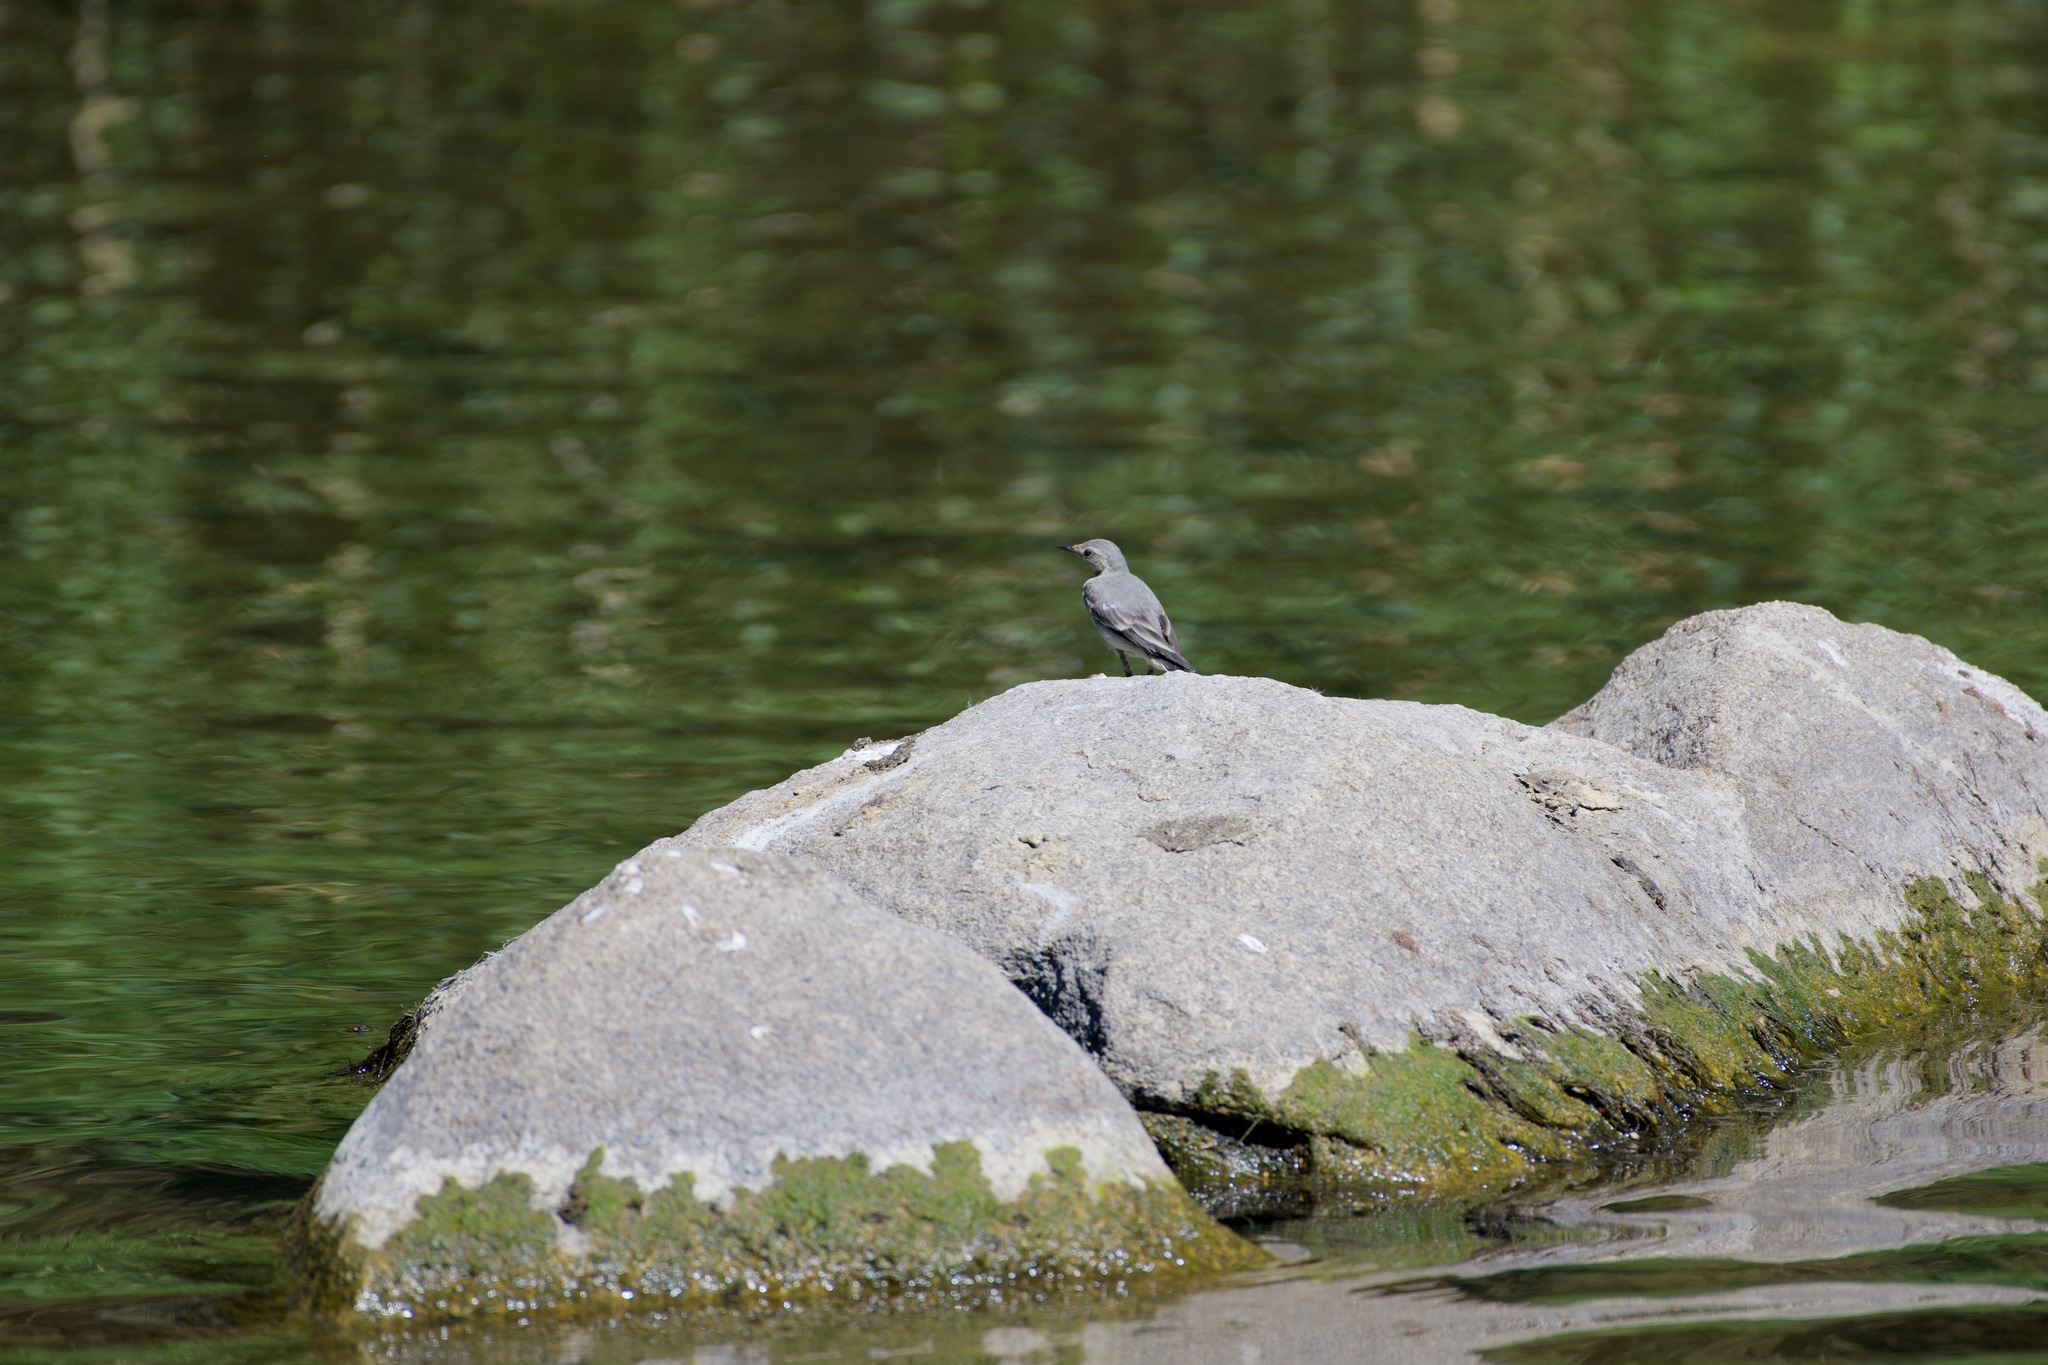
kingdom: Animalia
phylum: Chordata
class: Aves
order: Passeriformes
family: Motacillidae
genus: Motacilla
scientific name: Motacilla alba
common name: White wagtail
